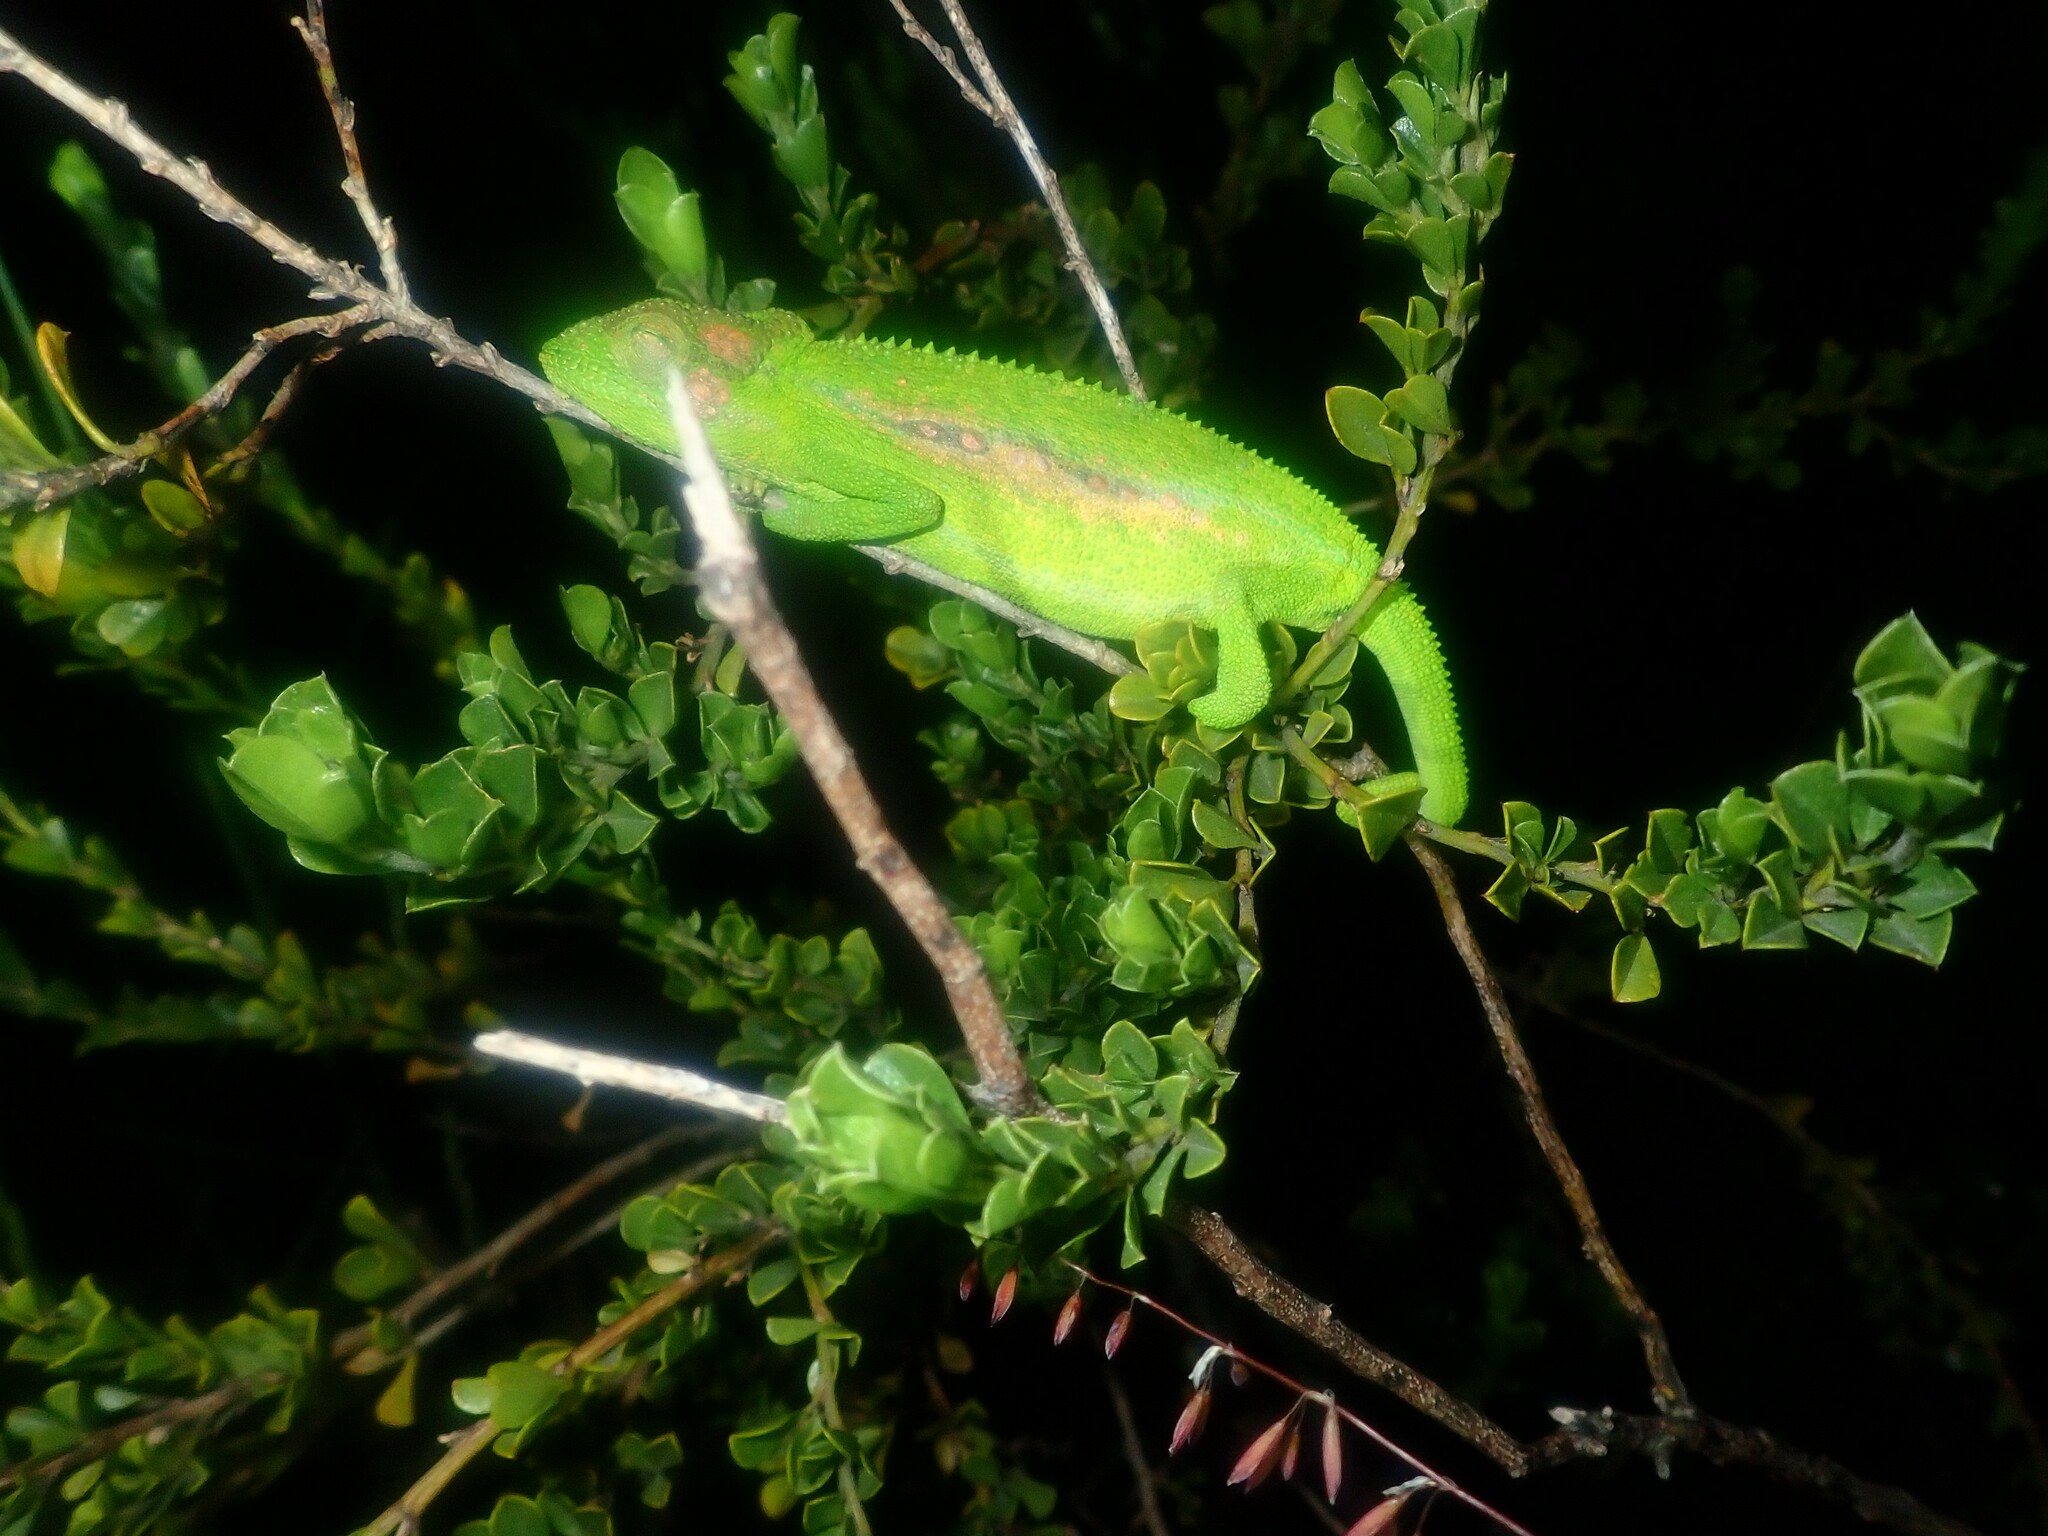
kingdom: Animalia
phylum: Chordata
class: Squamata
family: Chamaeleonidae
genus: Bradypodion
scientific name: Bradypodion pumilum
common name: Cape dwarf chameleon
